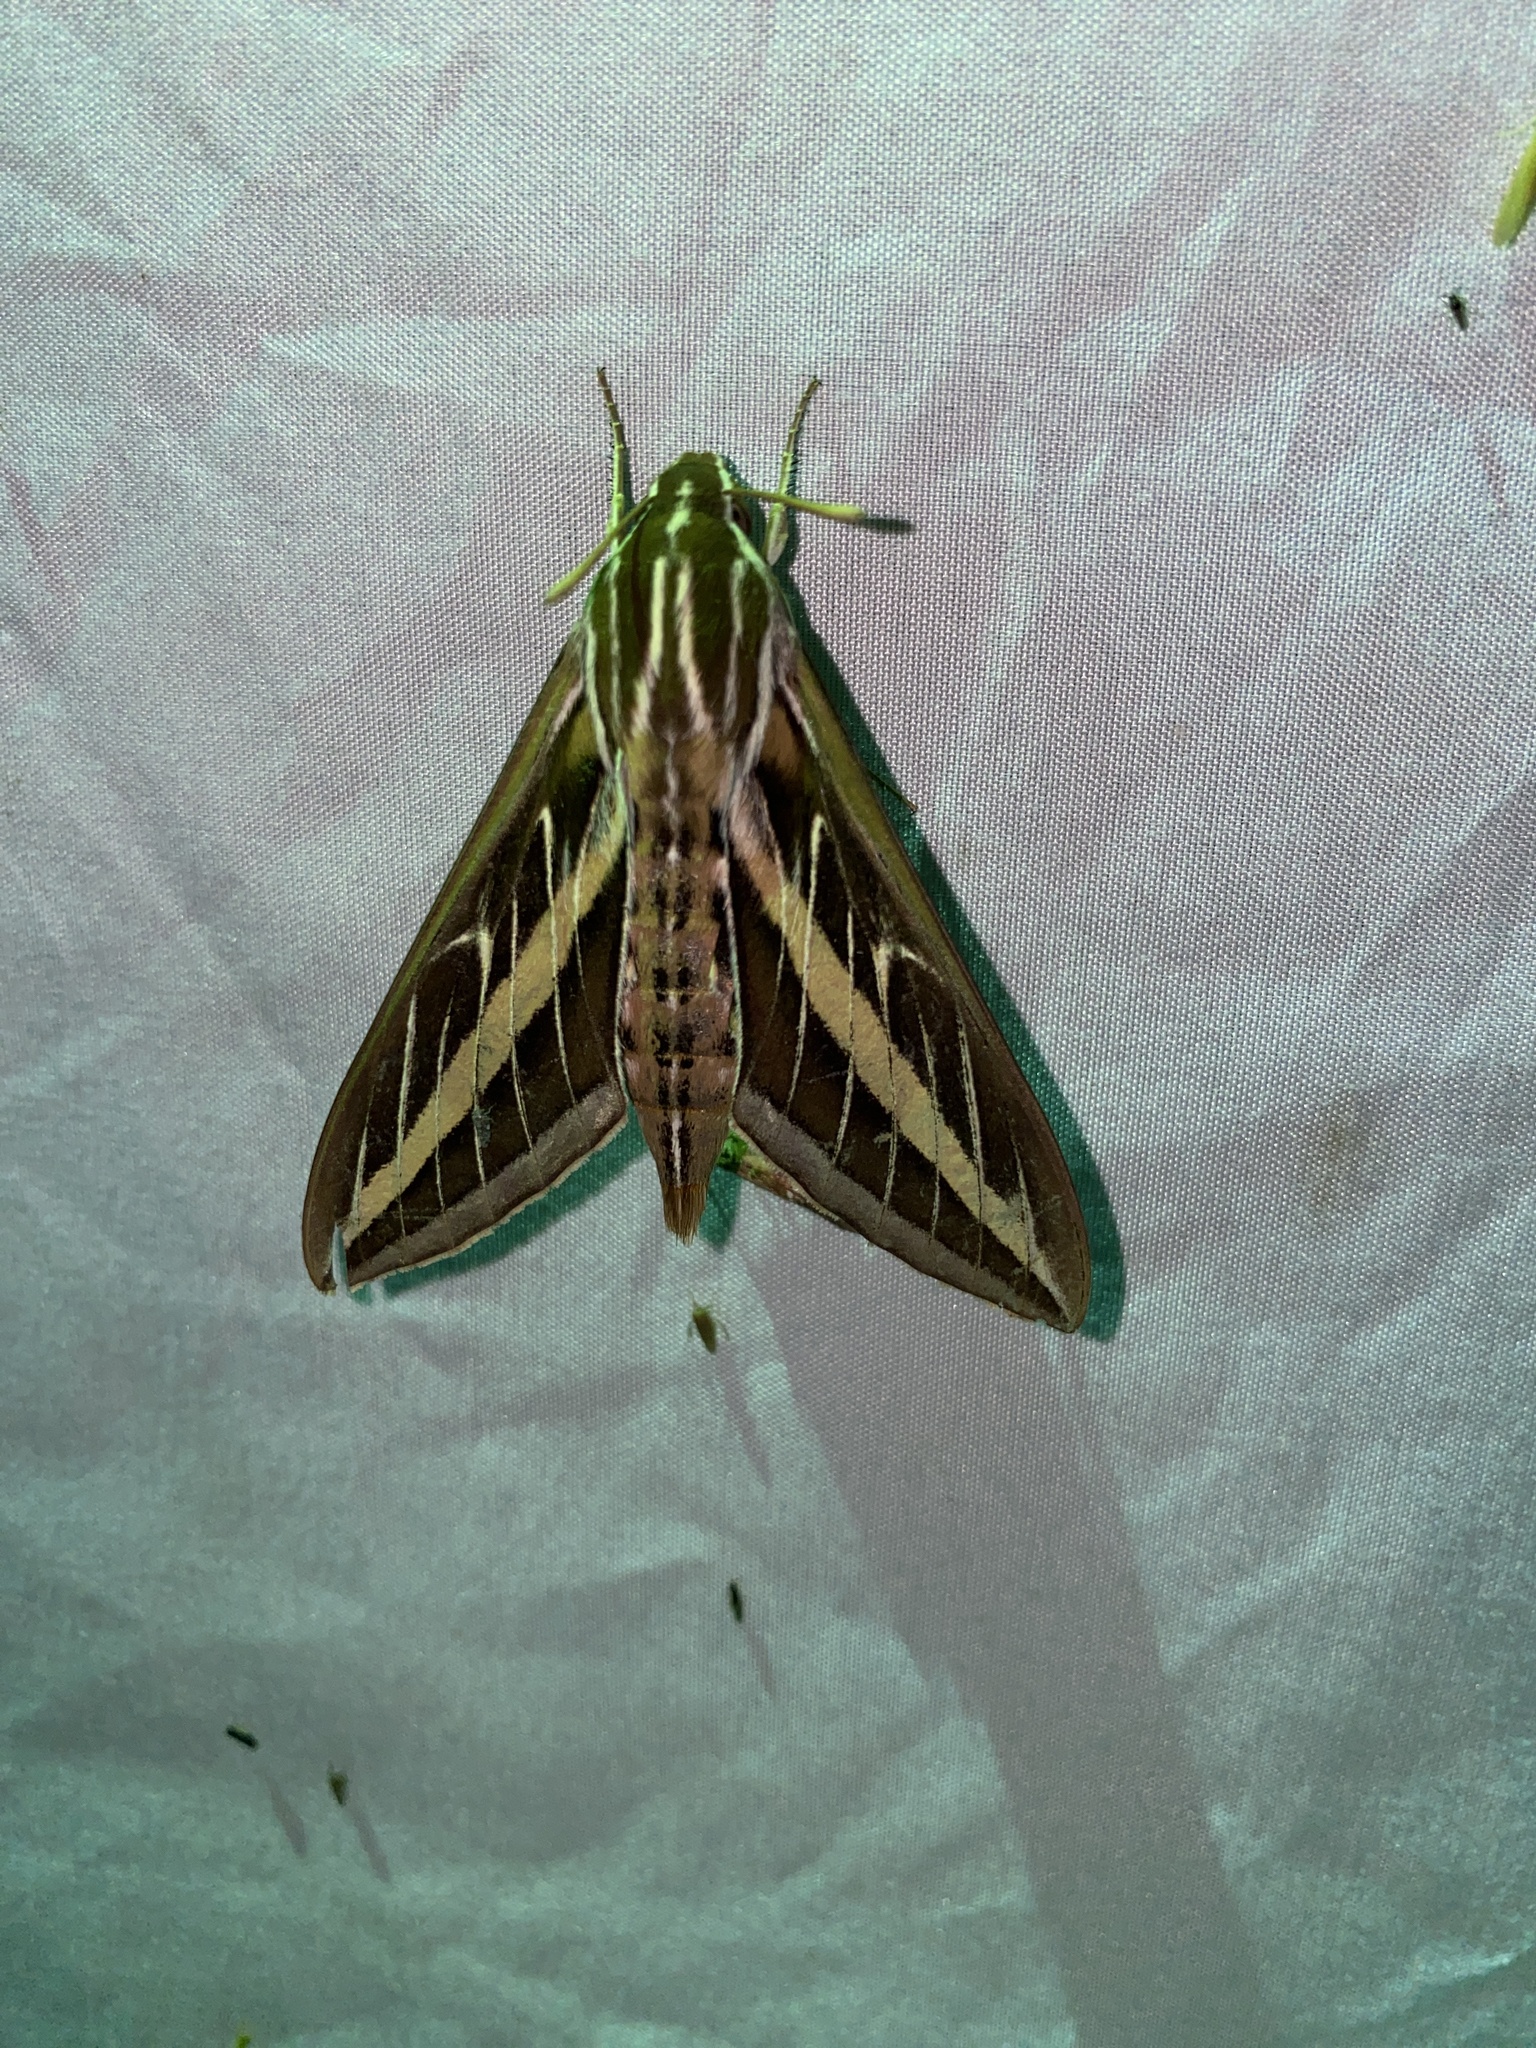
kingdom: Animalia
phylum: Arthropoda
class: Insecta
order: Lepidoptera
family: Sphingidae
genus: Hyles
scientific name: Hyles lineata
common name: White-lined sphinx
